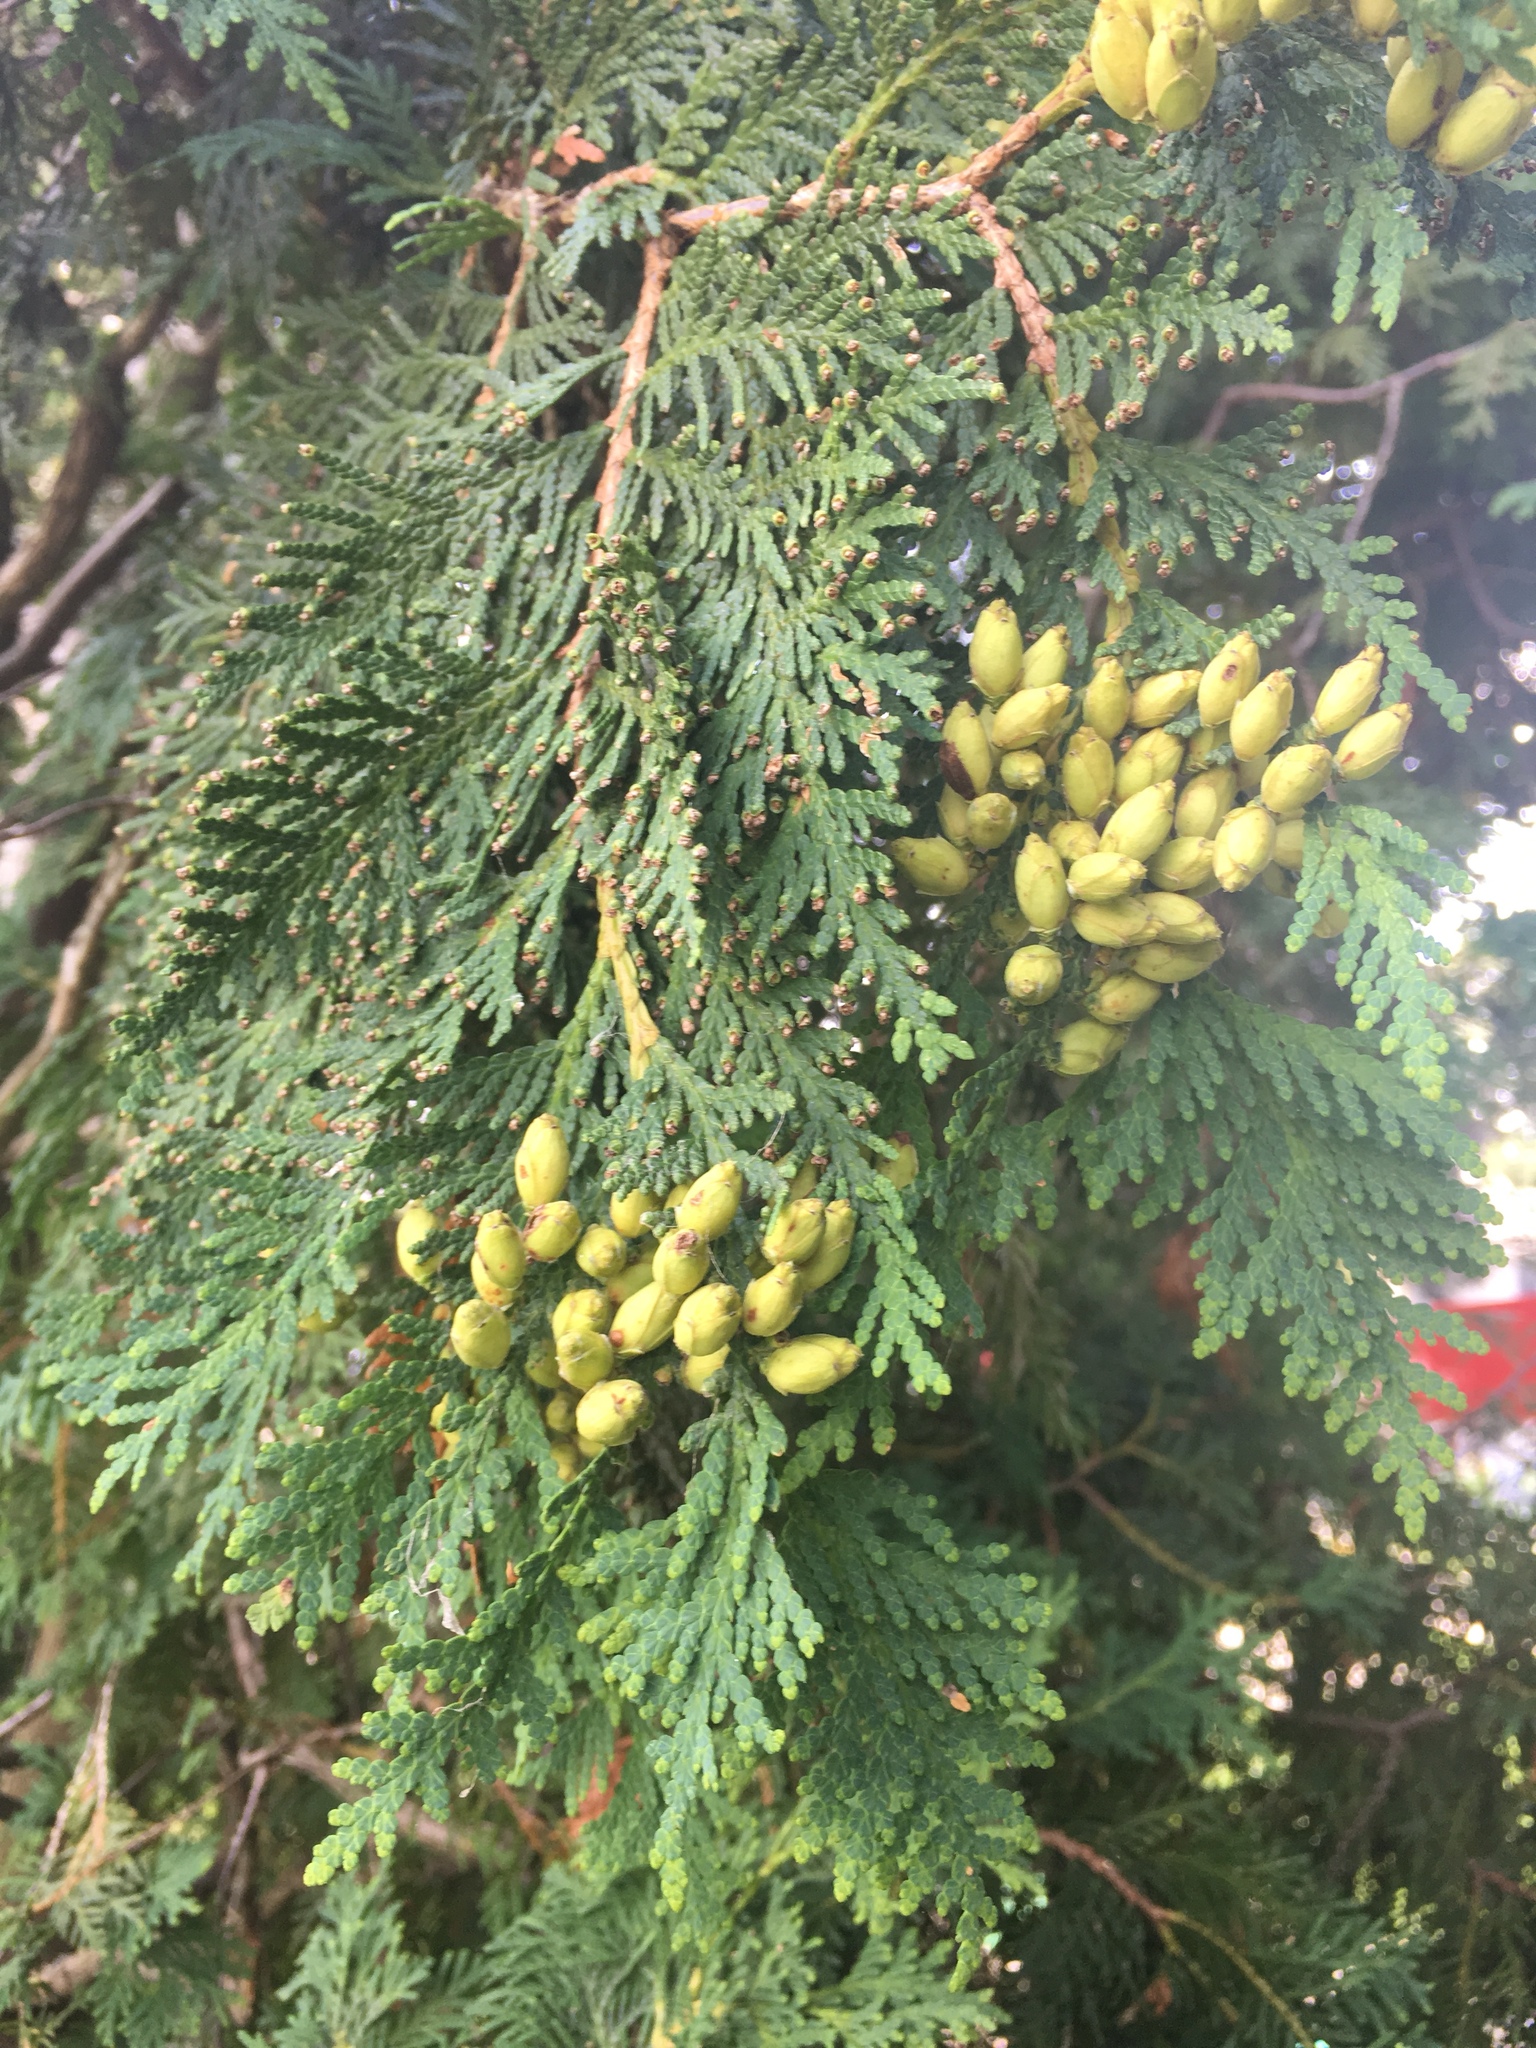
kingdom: Plantae
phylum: Tracheophyta
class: Pinopsida
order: Pinales
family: Cupressaceae
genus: Thuja
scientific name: Thuja occidentalis
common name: Northern white-cedar
